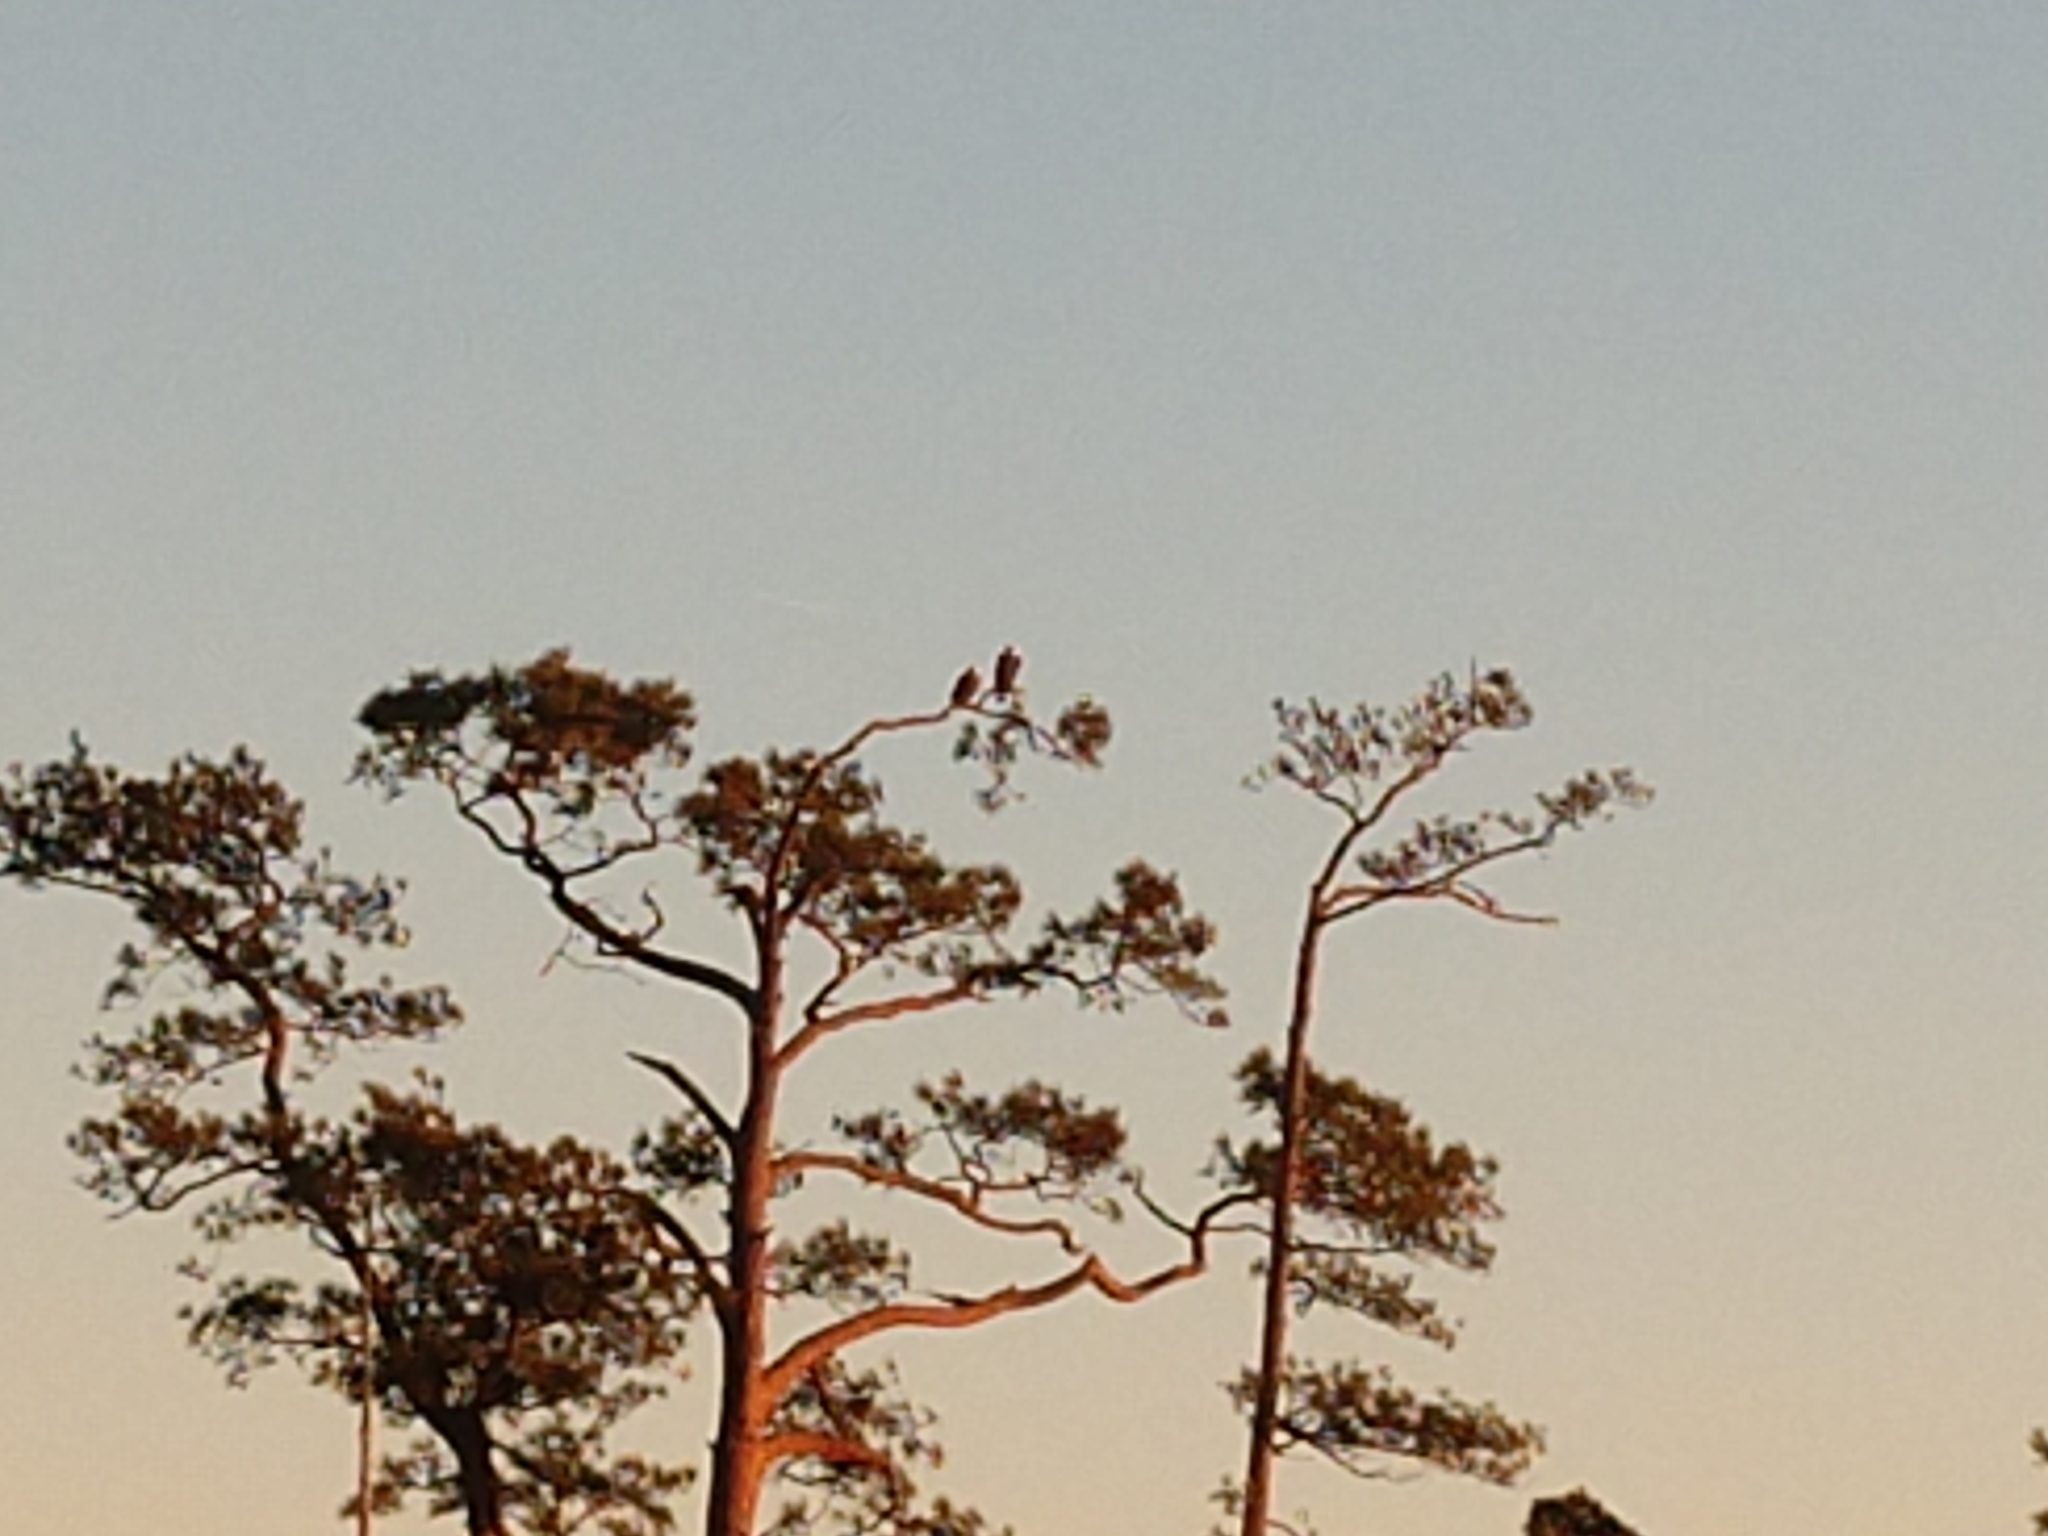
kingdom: Animalia
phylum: Chordata
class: Aves
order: Accipitriformes
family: Accipitridae
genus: Haliaeetus
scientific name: Haliaeetus leucocephalus
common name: Bald eagle
